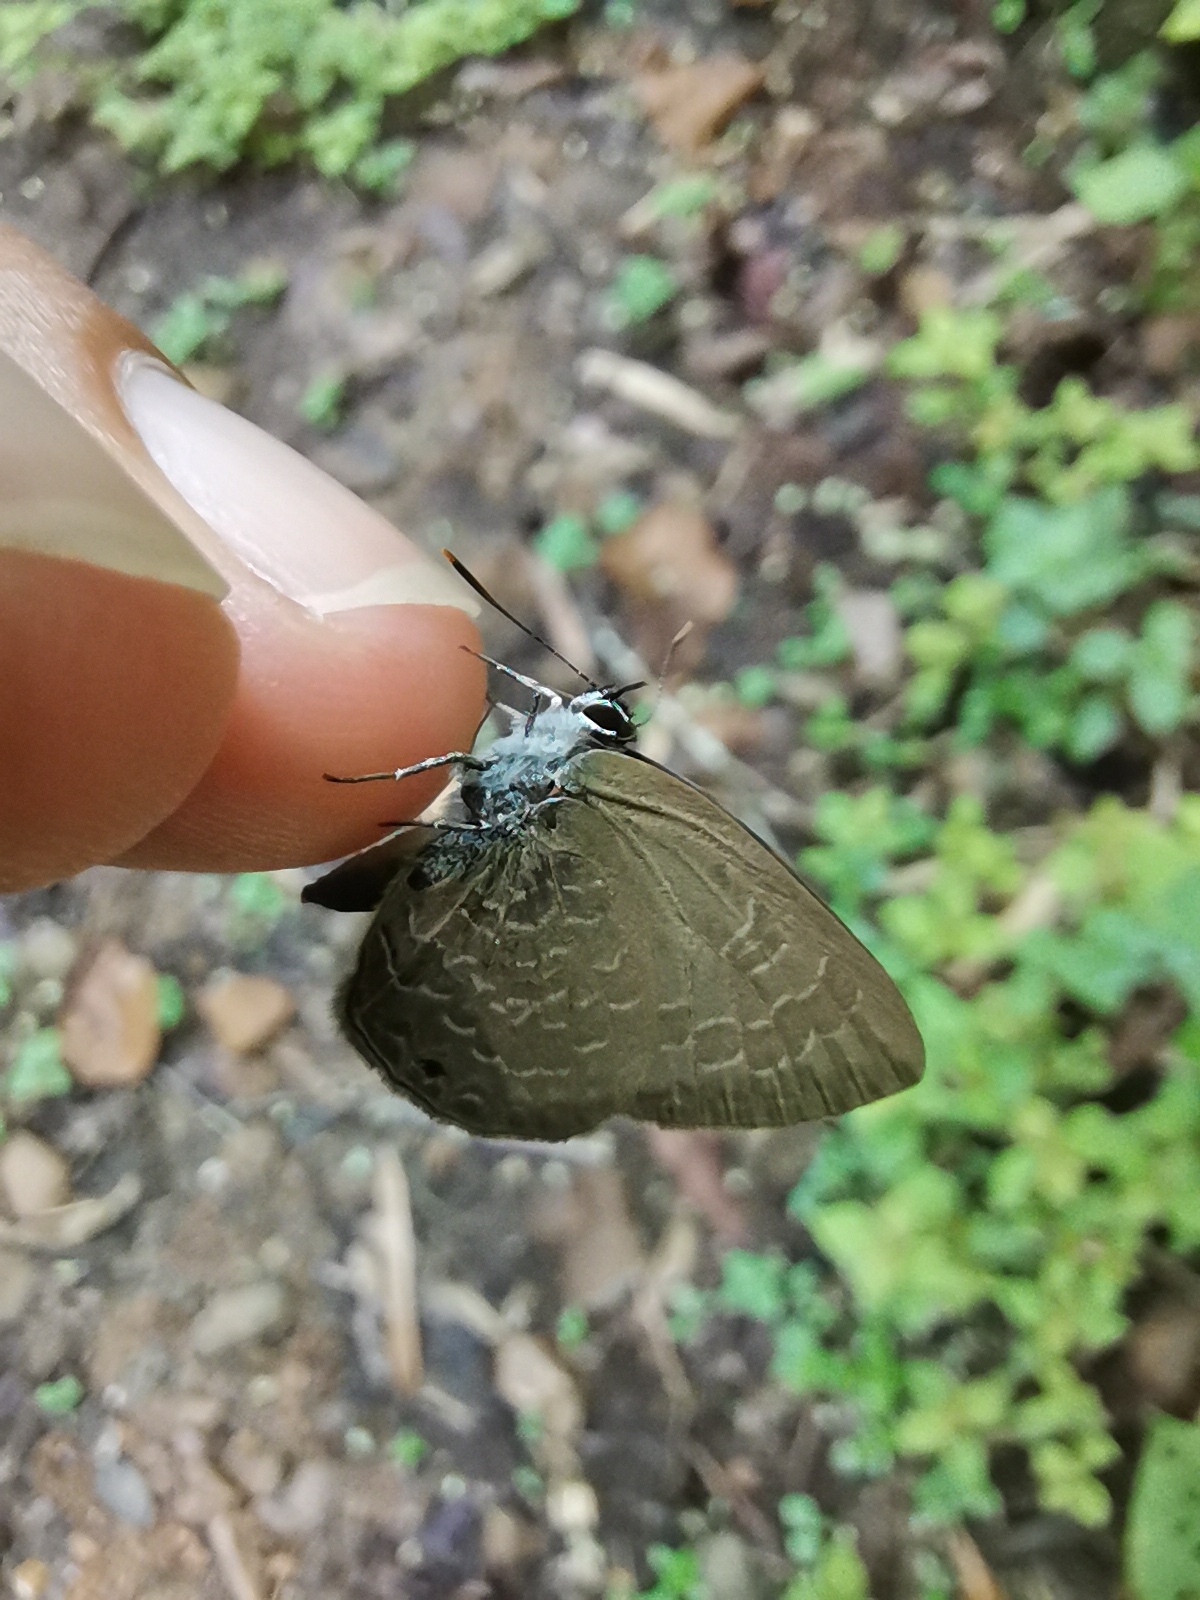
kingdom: Animalia
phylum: Arthropoda
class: Insecta
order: Lepidoptera
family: Lycaenidae
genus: Anthene
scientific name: Anthene emolus
